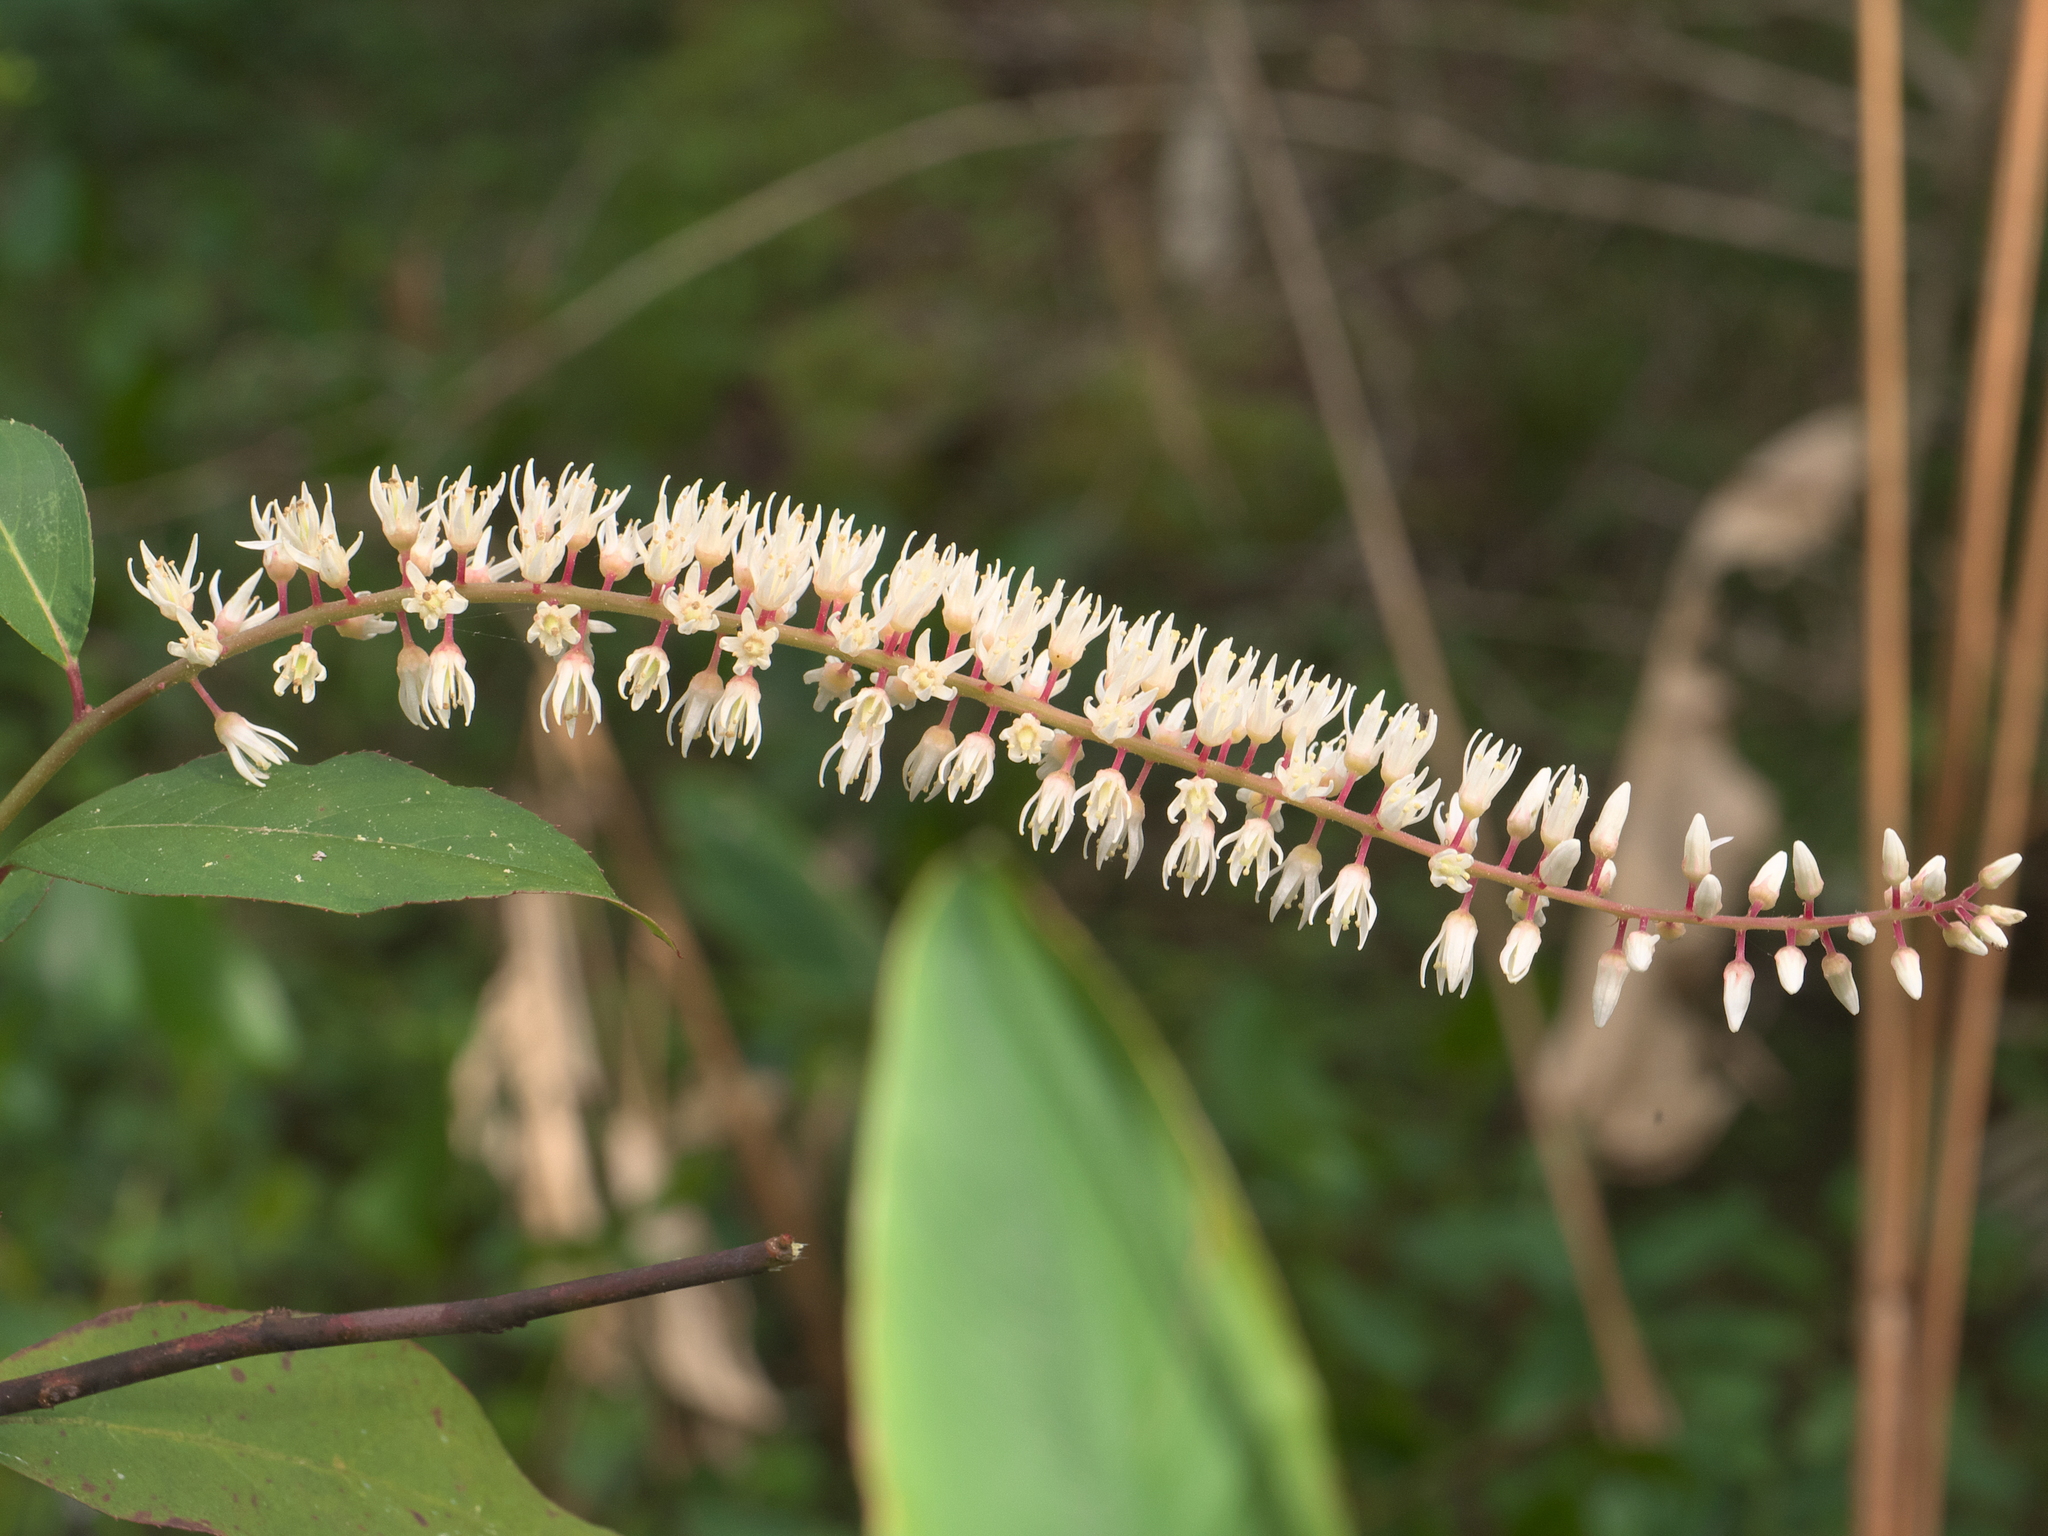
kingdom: Plantae
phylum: Tracheophyta
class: Magnoliopsida
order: Saxifragales
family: Iteaceae
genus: Itea
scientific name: Itea virginica
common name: Sweetspire
